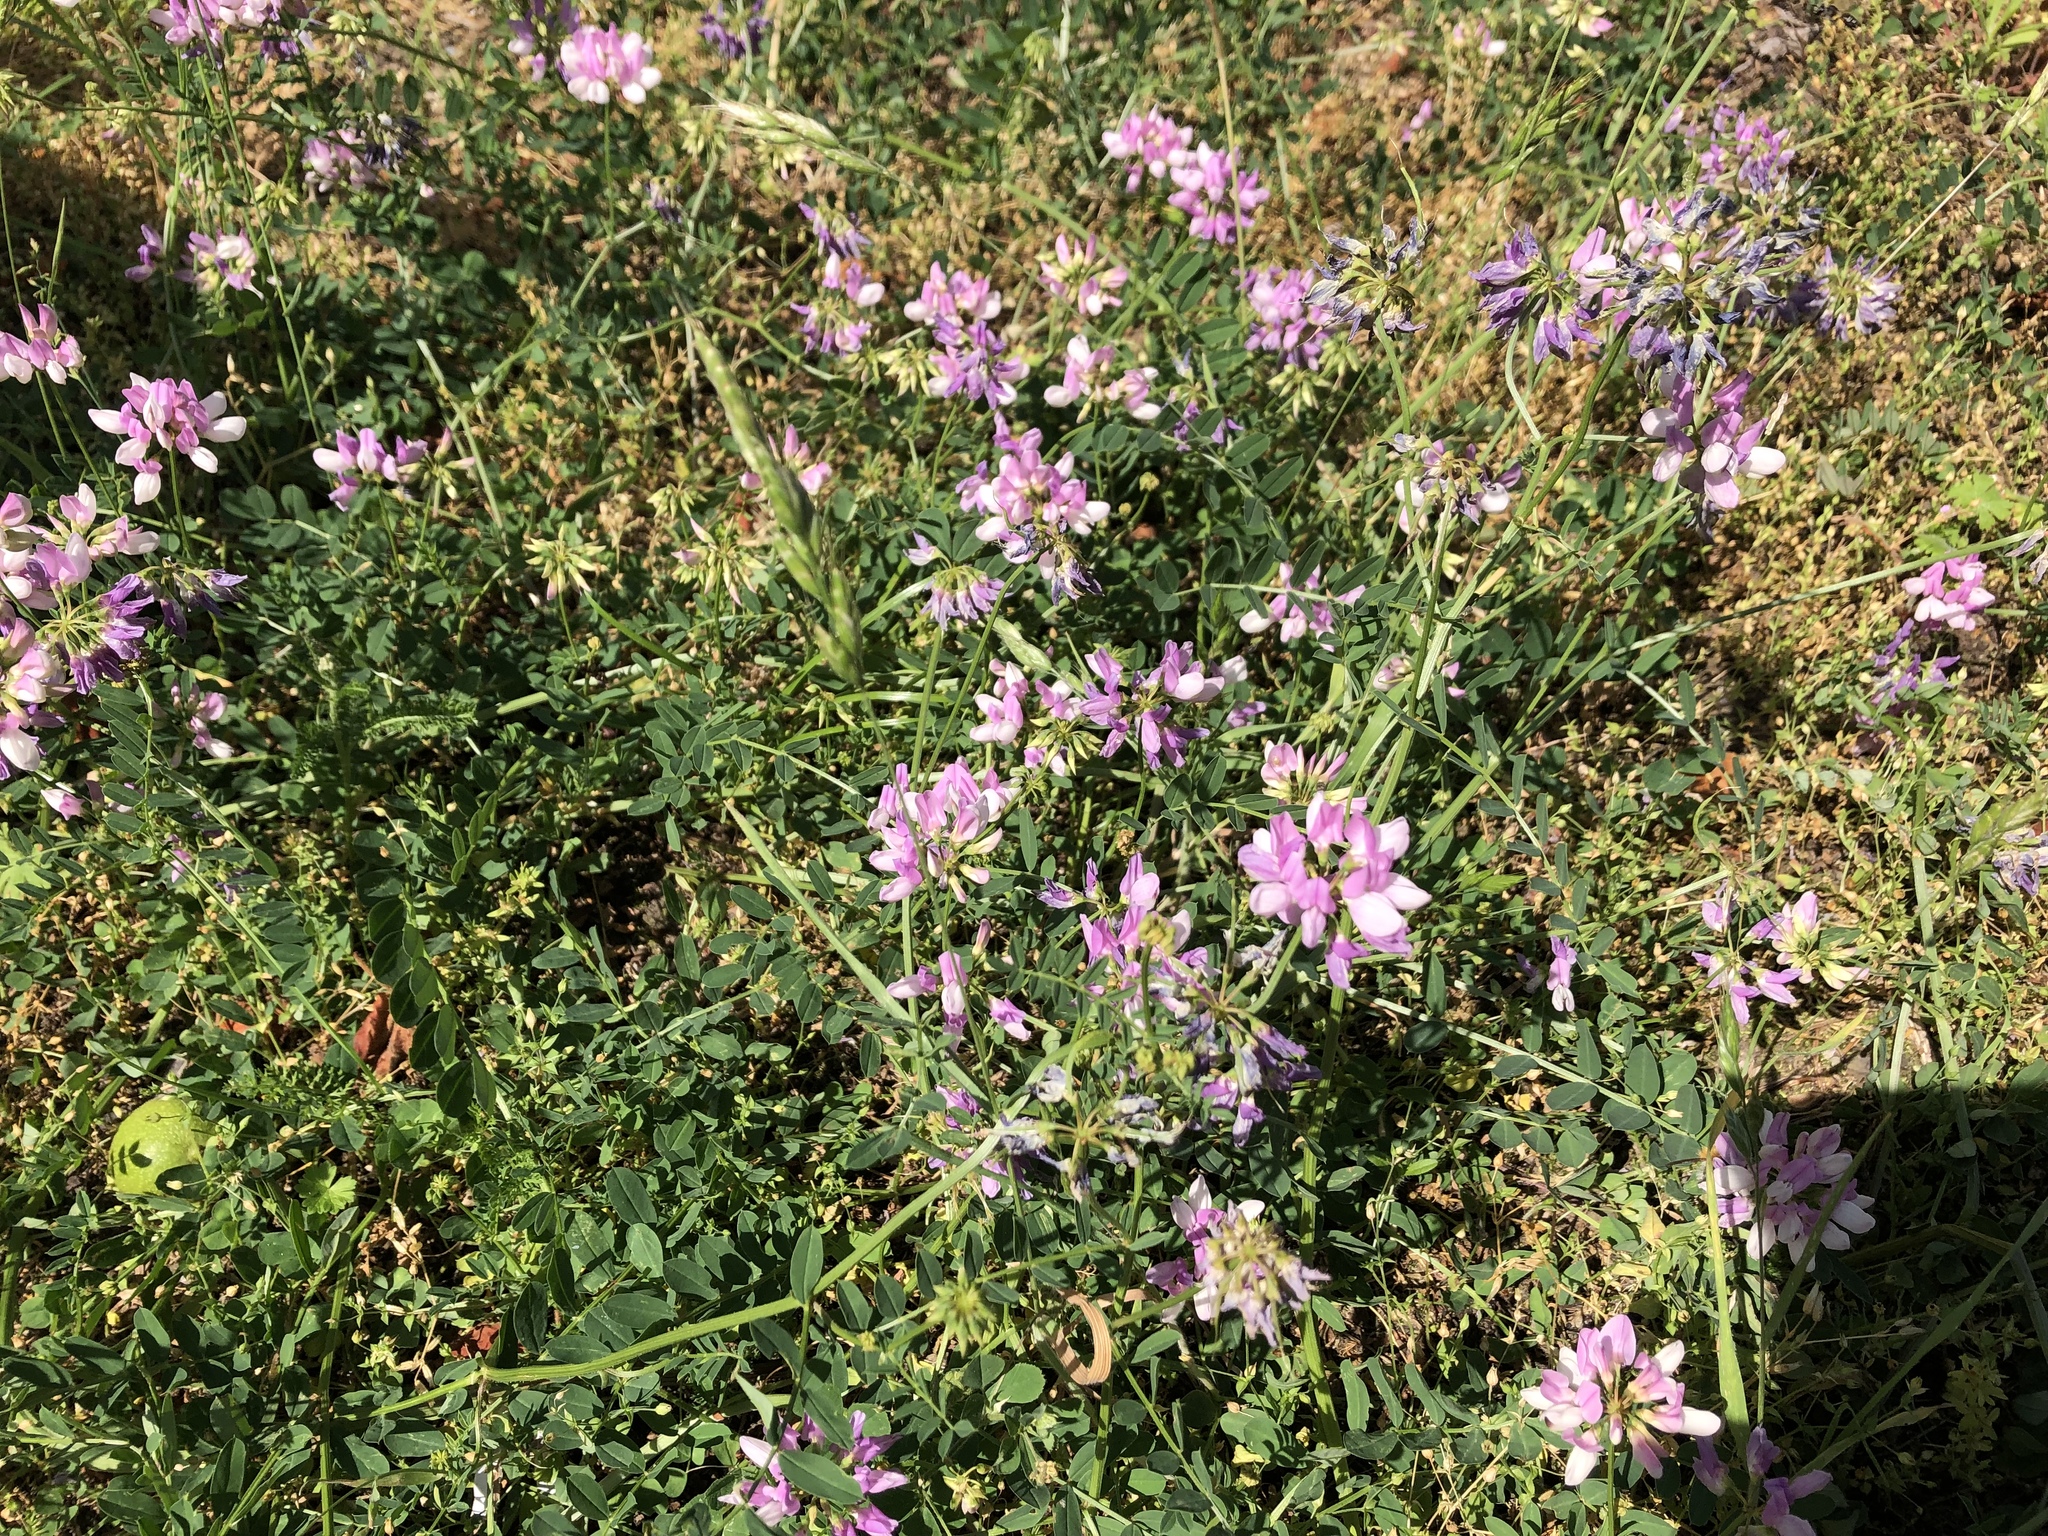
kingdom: Plantae
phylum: Tracheophyta
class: Magnoliopsida
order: Fabales
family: Fabaceae
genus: Coronilla
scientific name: Coronilla varia
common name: Crownvetch
